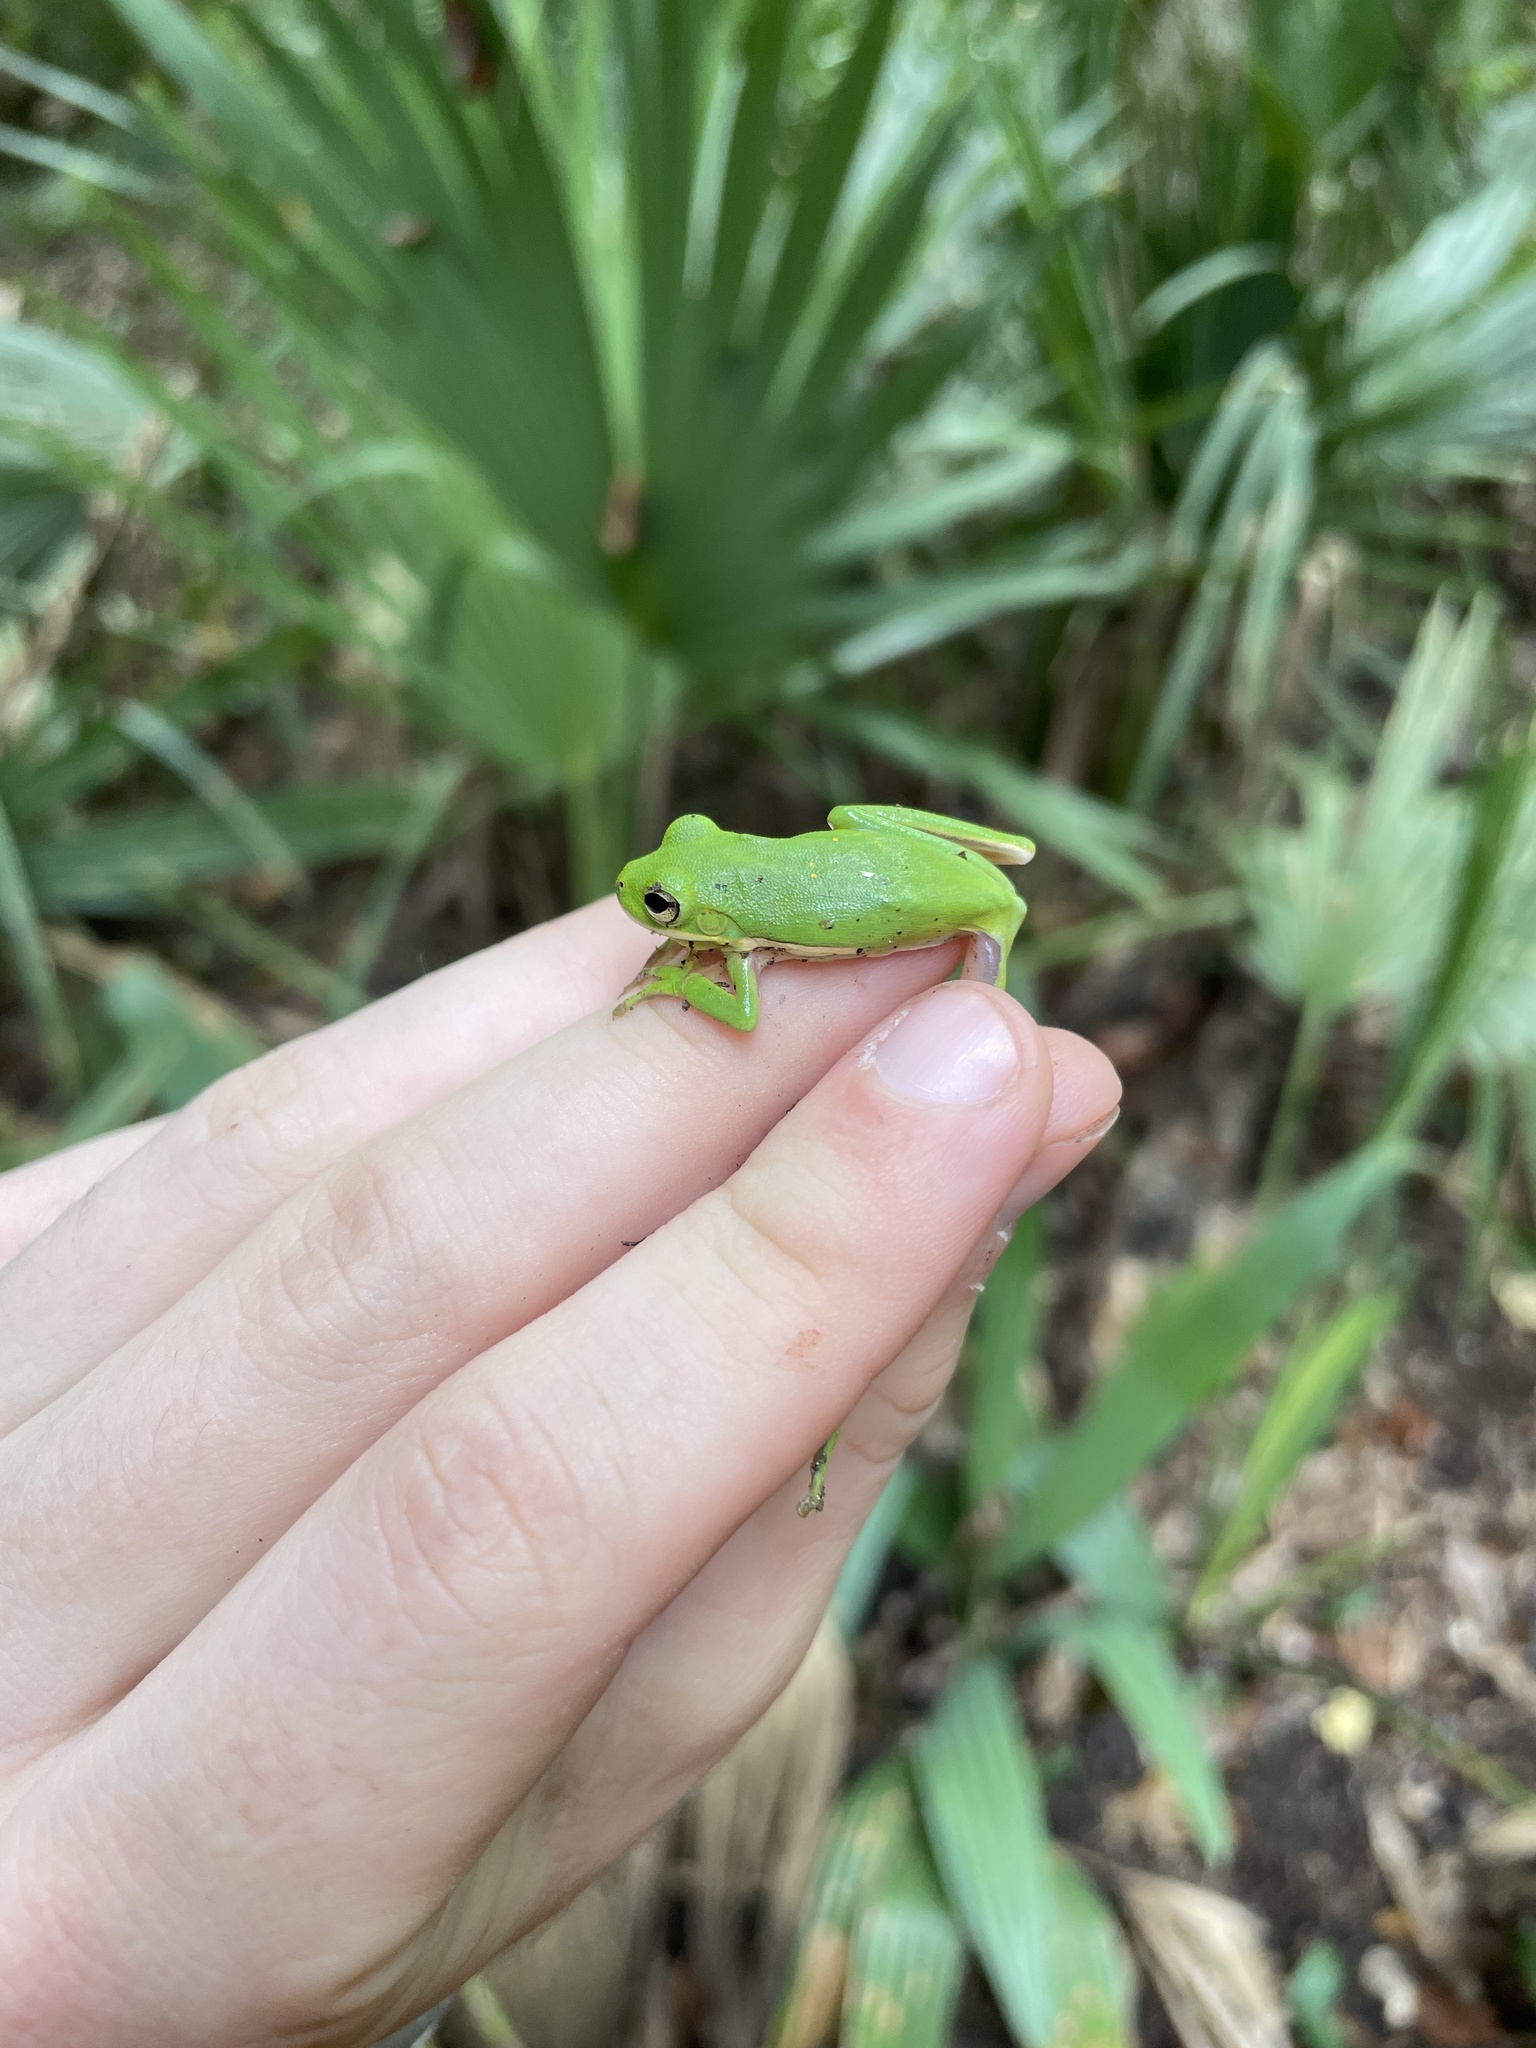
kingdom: Animalia
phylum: Chordata
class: Amphibia
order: Anura
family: Hylidae
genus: Dryophytes
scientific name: Dryophytes cinereus
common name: Green treefrog
